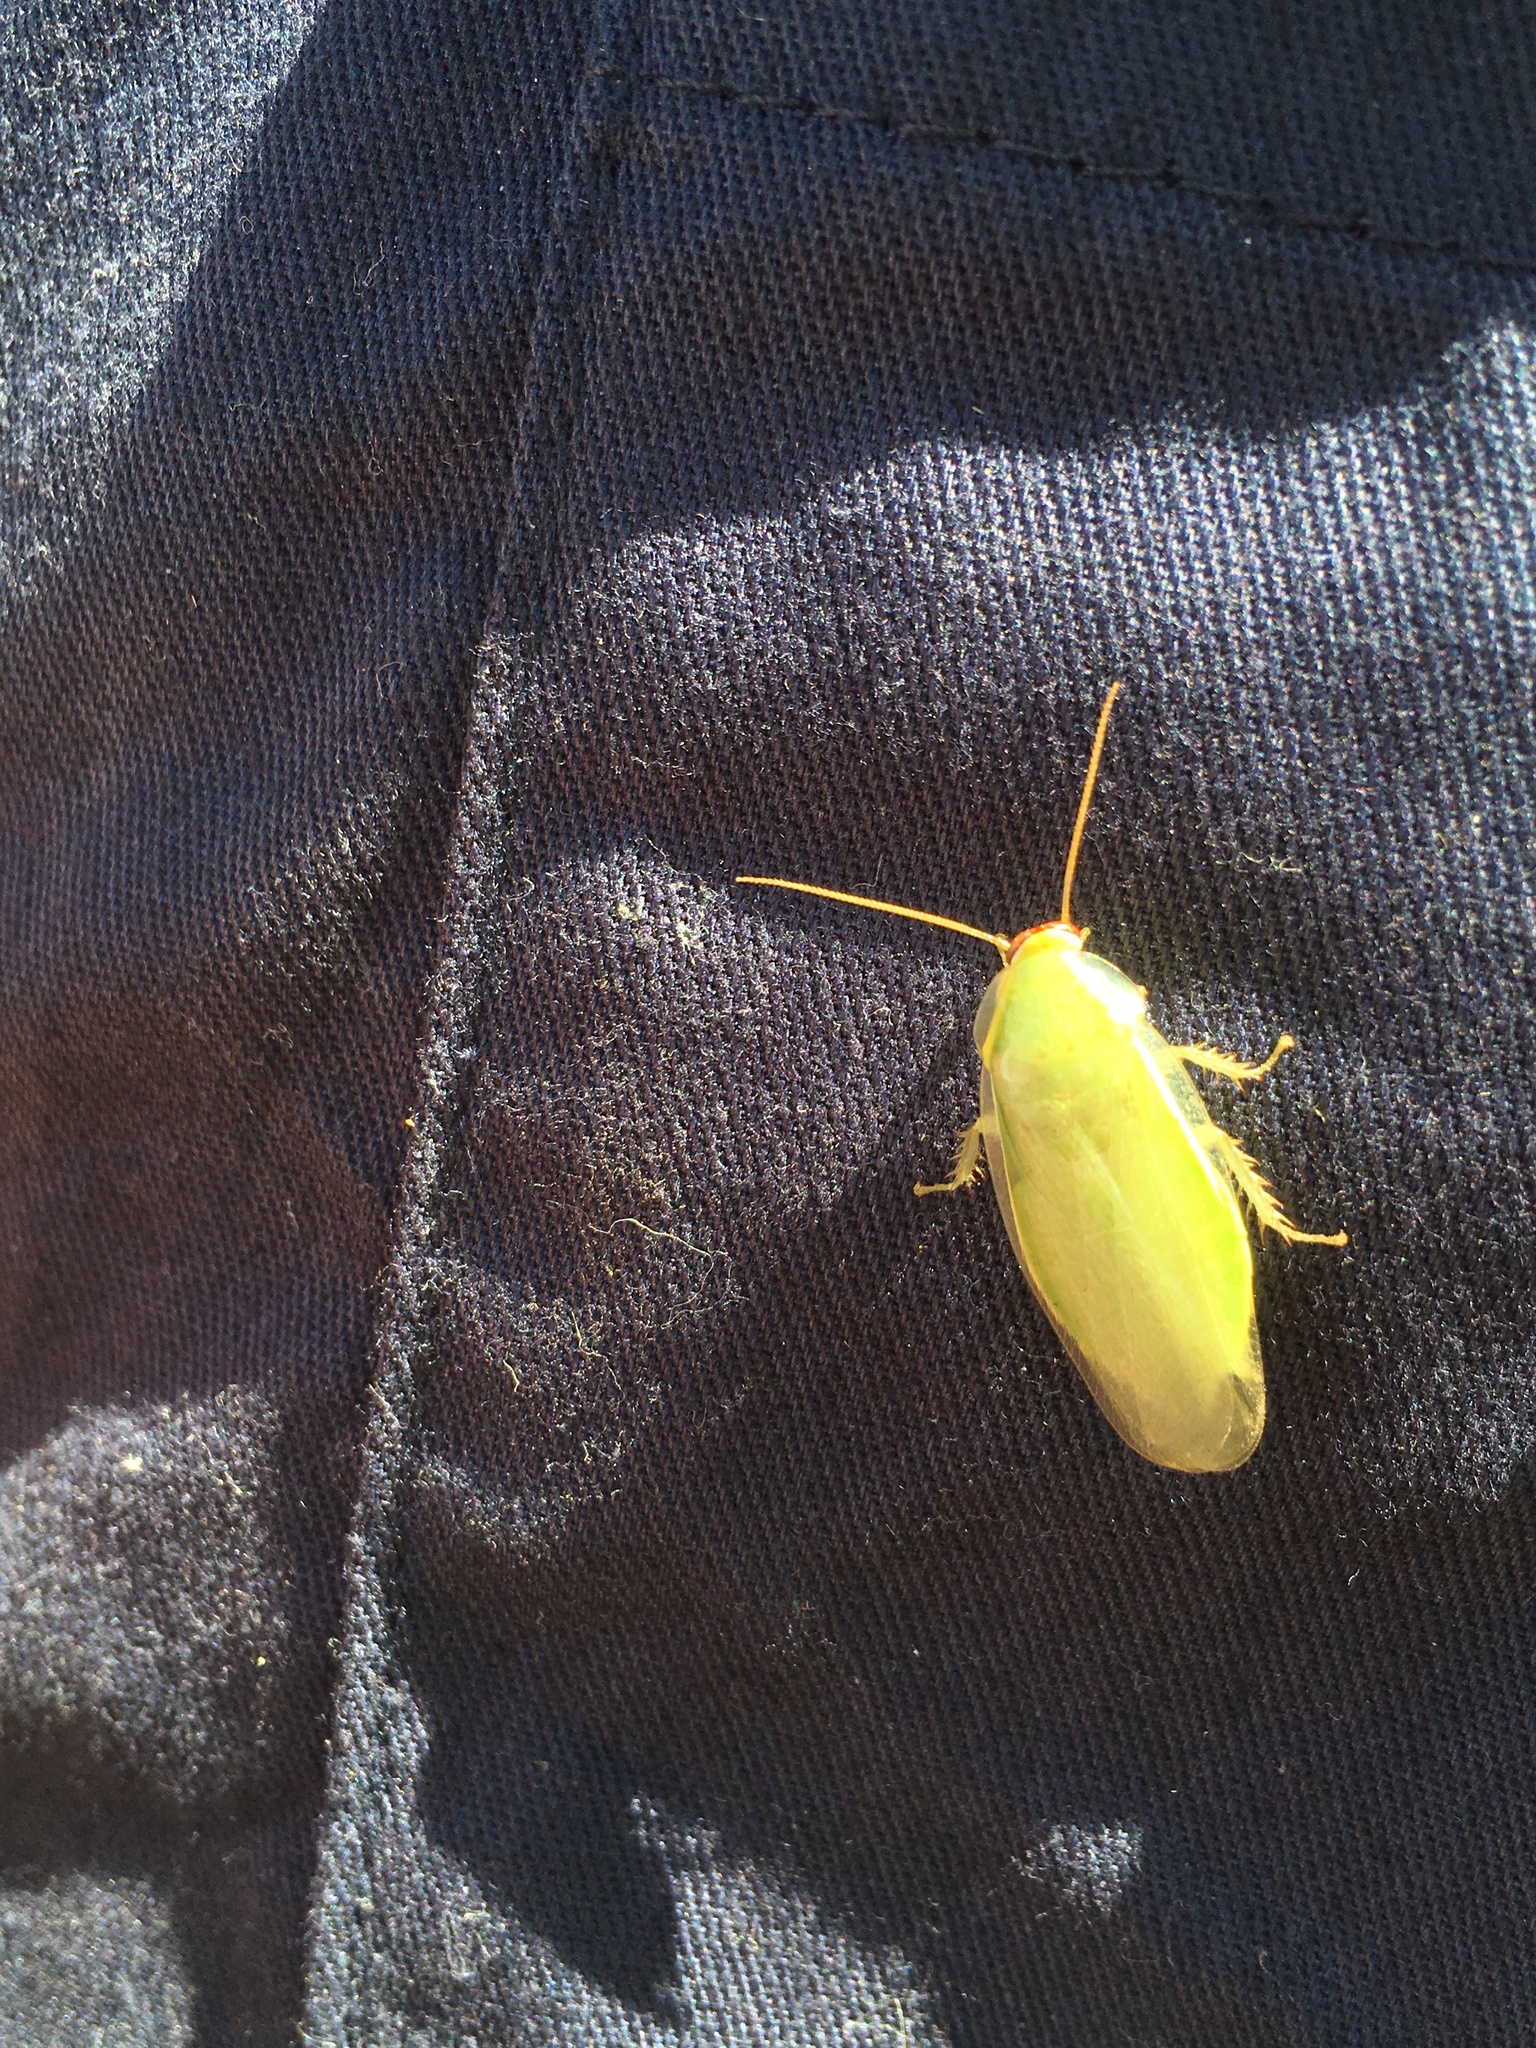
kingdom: Animalia
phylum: Arthropoda
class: Insecta
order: Blattodea
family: Blaberidae
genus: Panchlora
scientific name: Panchlora thalassina
